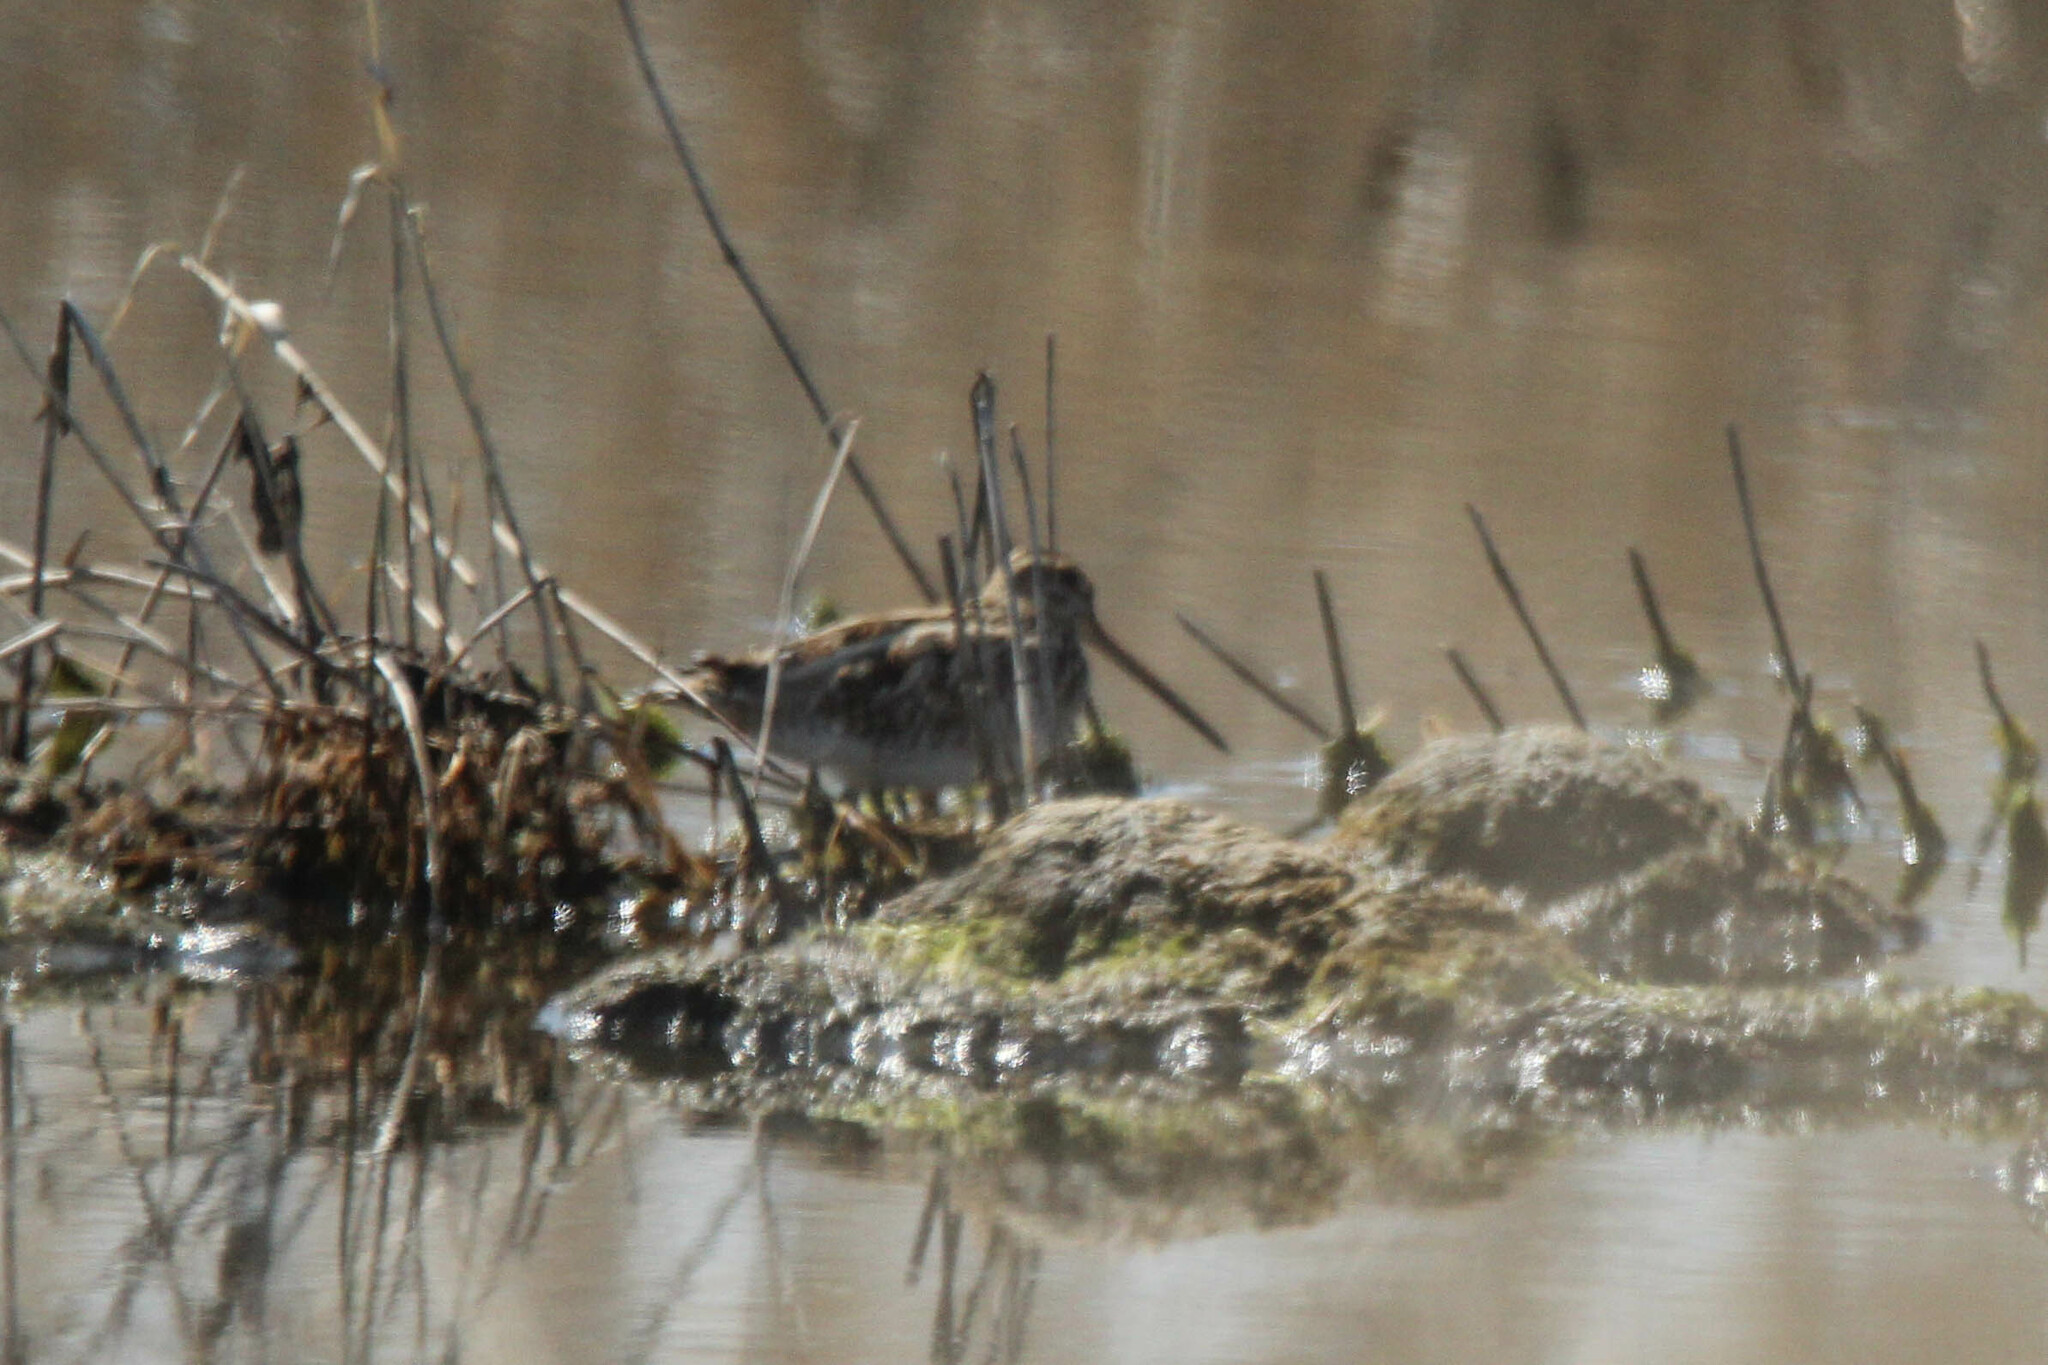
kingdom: Animalia
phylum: Chordata
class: Aves
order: Charadriiformes
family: Scolopacidae
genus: Gallinago
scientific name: Gallinago gallinago
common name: Common snipe
